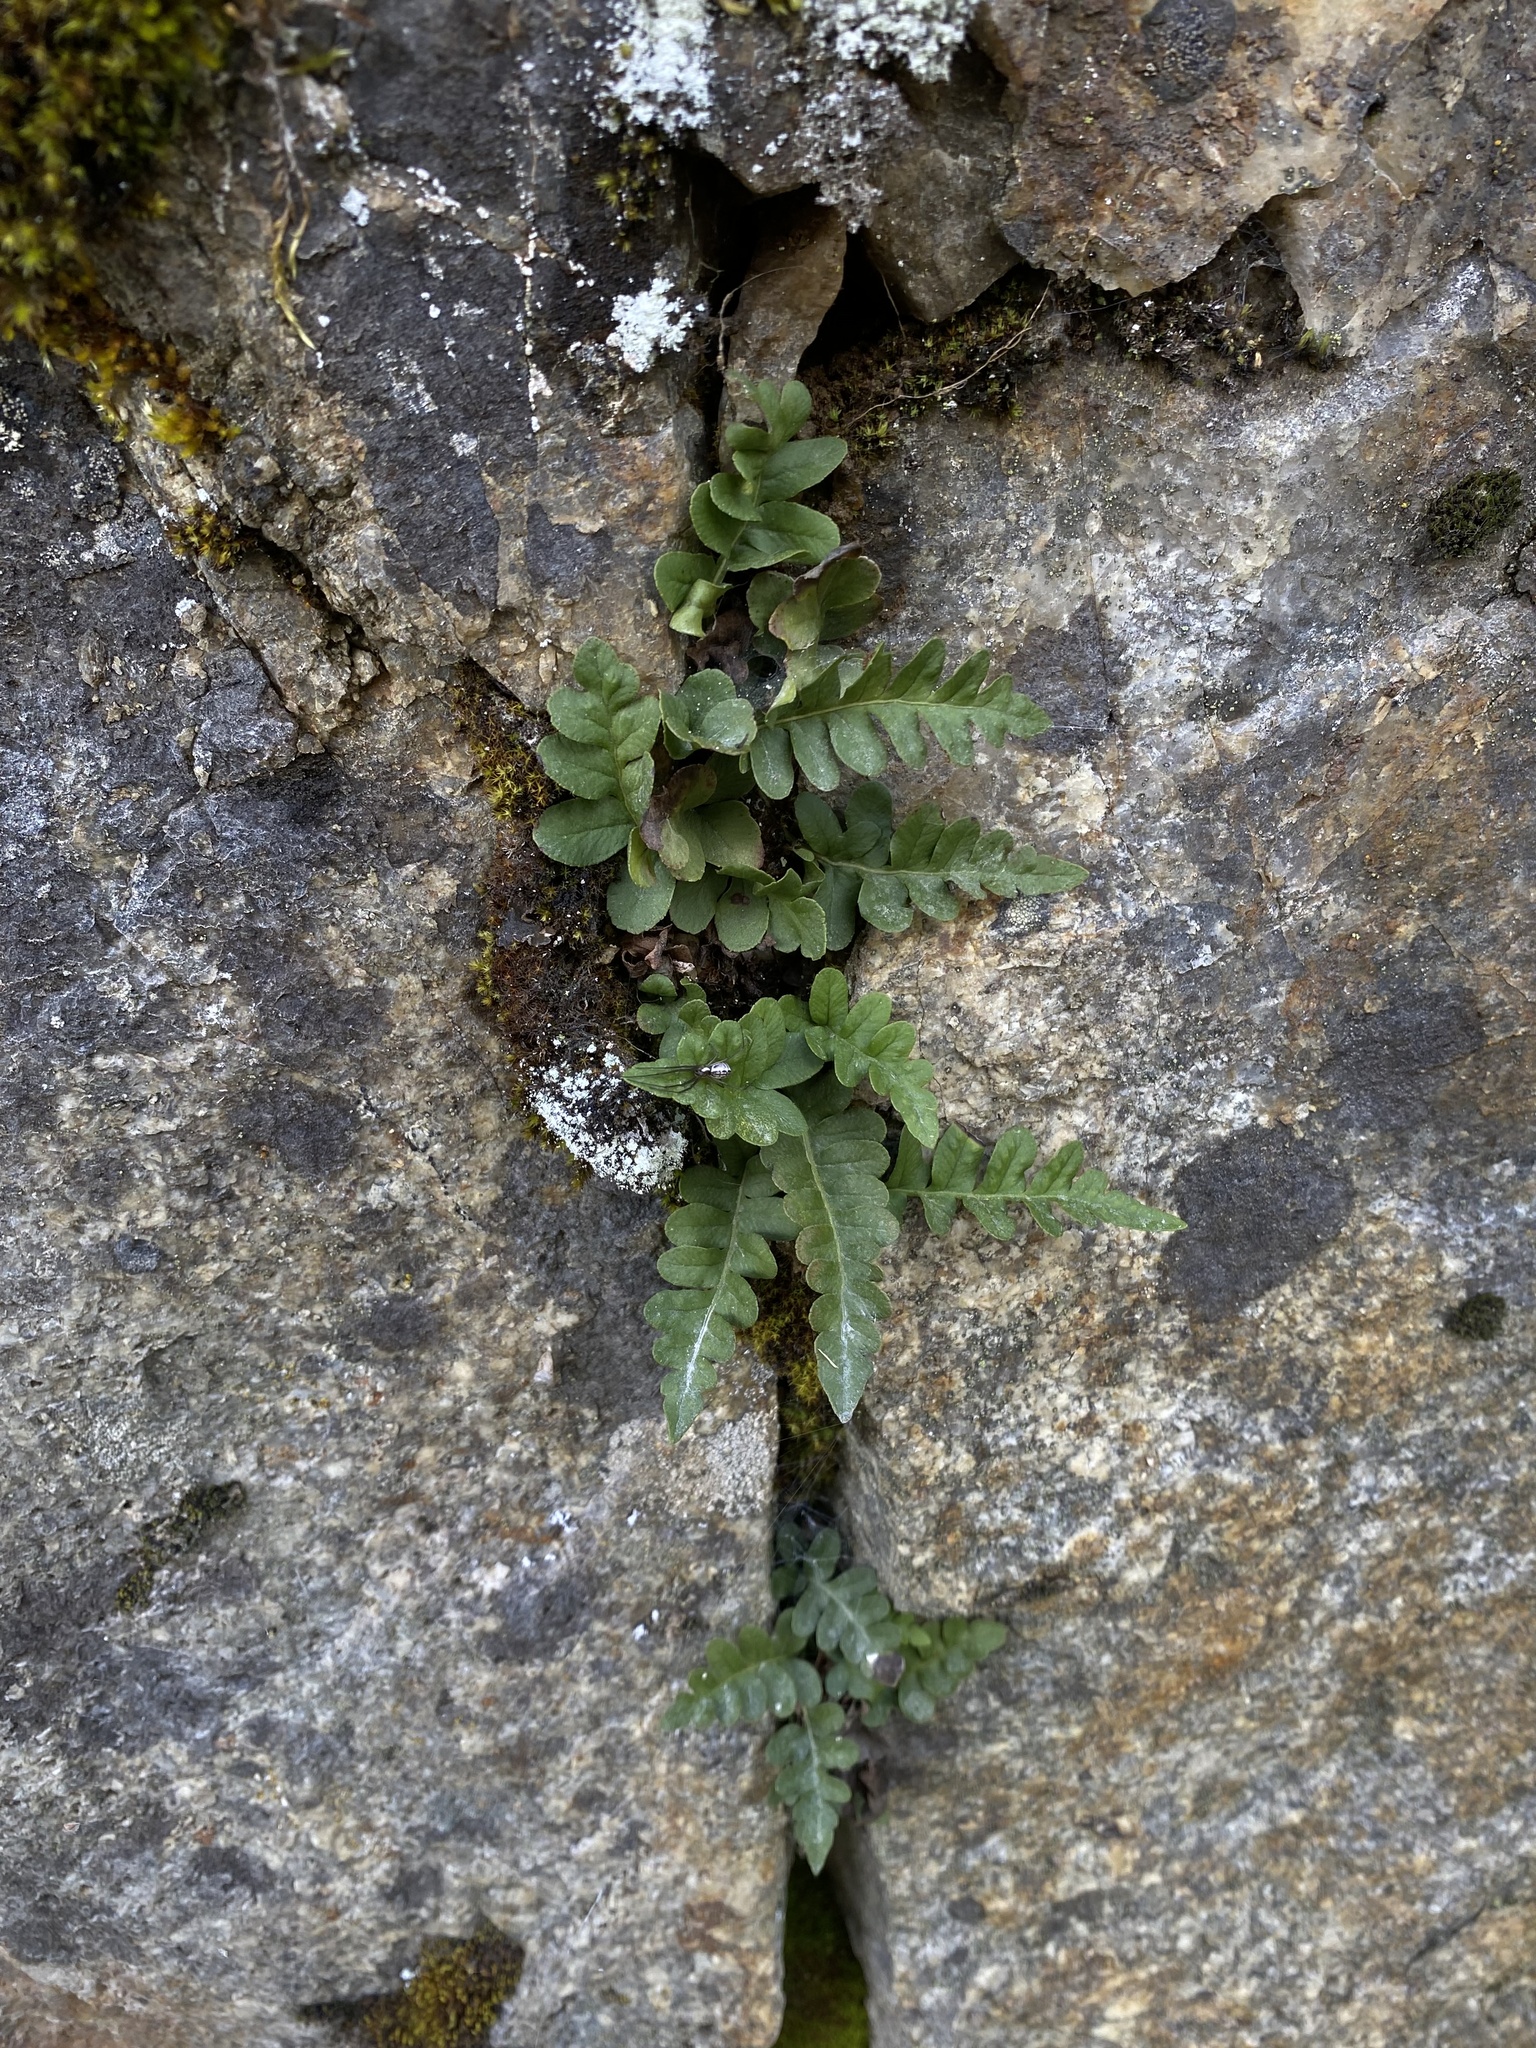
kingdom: Plantae
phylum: Tracheophyta
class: Polypodiopsida
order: Polypodiales
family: Polypodiaceae
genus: Polypodium
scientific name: Polypodium hesperium
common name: Western polypody
